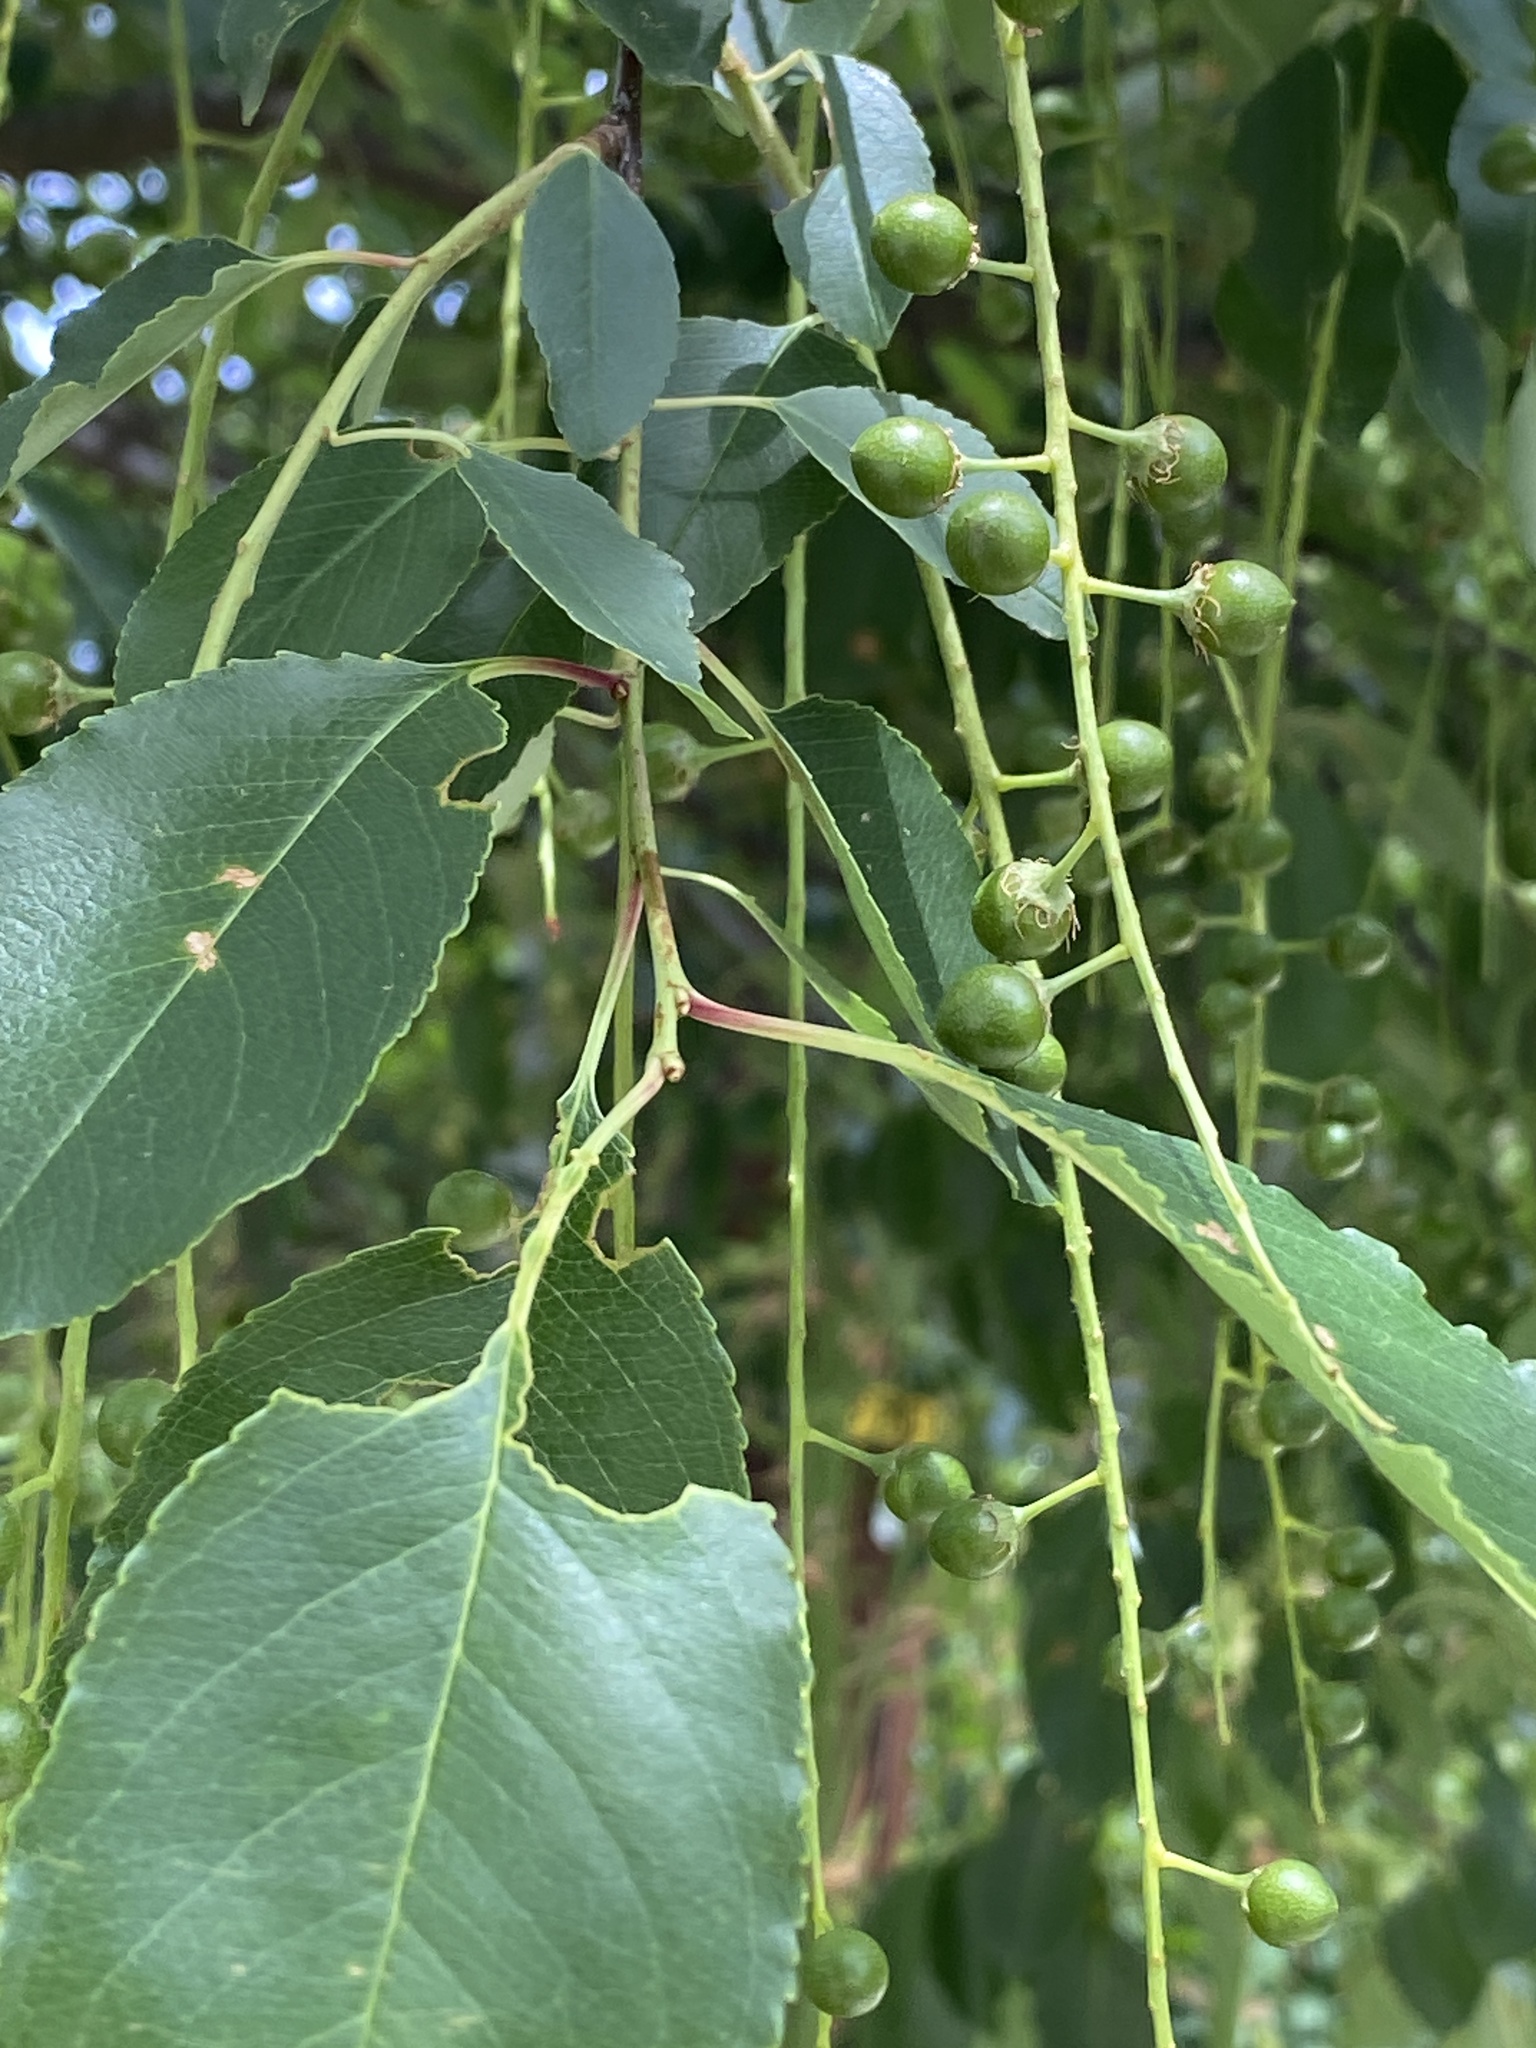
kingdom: Plantae
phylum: Tracheophyta
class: Magnoliopsida
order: Rosales
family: Rosaceae
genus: Prunus
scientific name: Prunus serotina
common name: Black cherry
